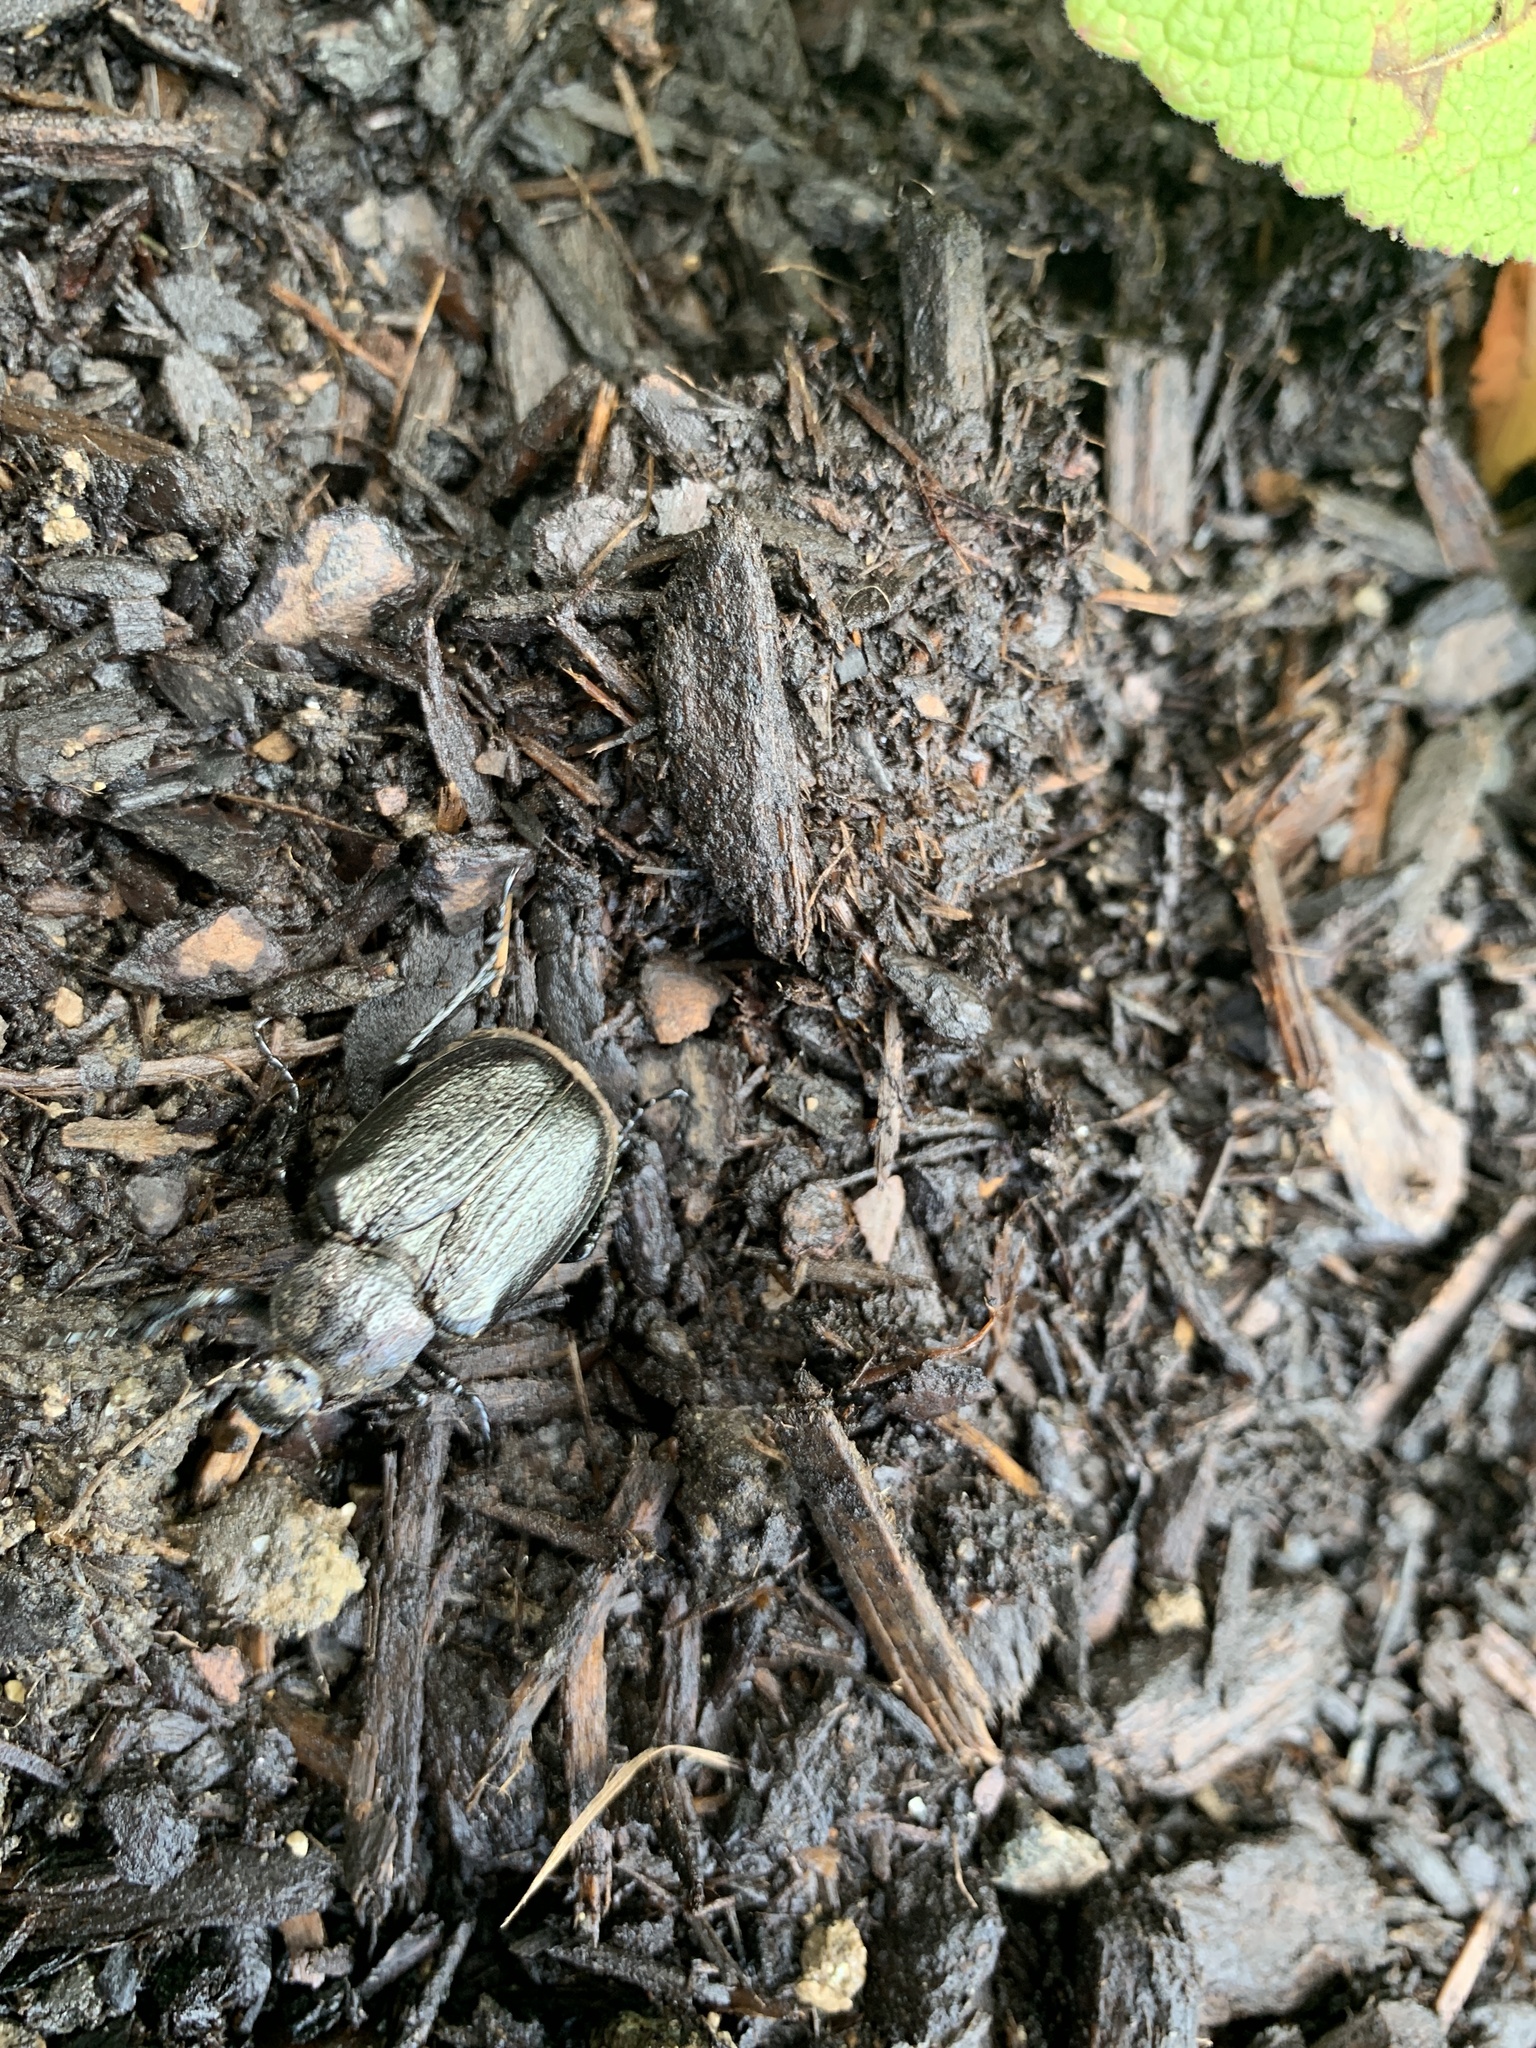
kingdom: Animalia
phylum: Arthropoda
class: Insecta
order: Coleoptera
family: Scarabaeidae
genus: Osmoderma
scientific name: Osmoderma scabra
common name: Rough hermit beetle
